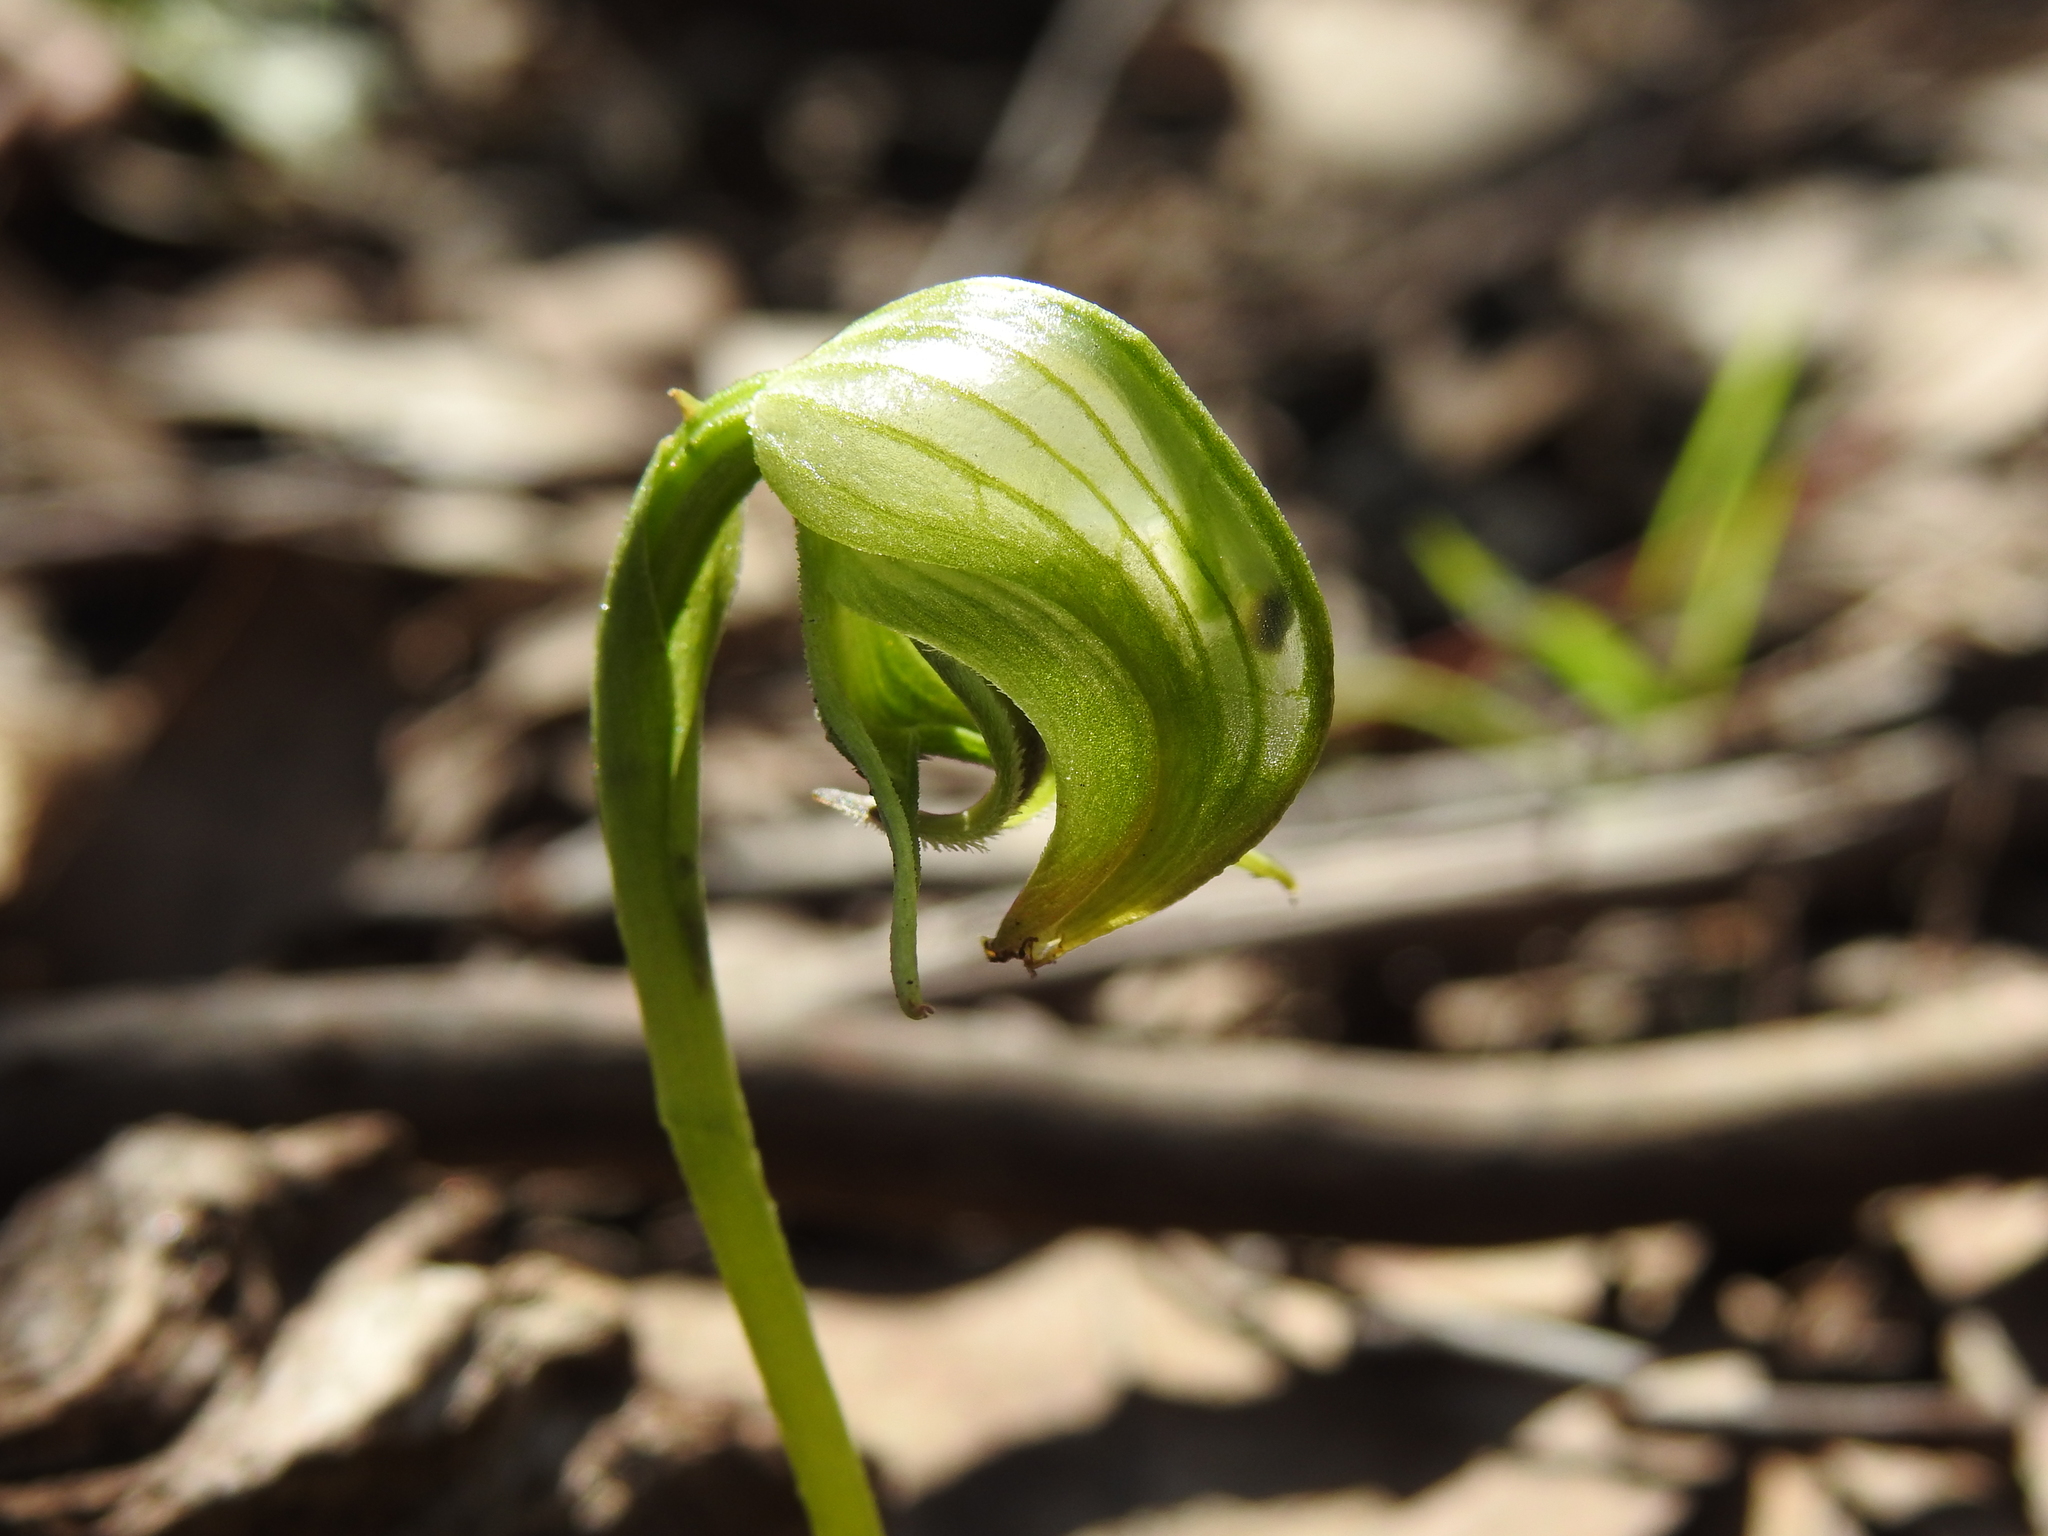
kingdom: Plantae
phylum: Tracheophyta
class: Liliopsida
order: Asparagales
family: Orchidaceae
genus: Pterostylis
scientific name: Pterostylis nutans
